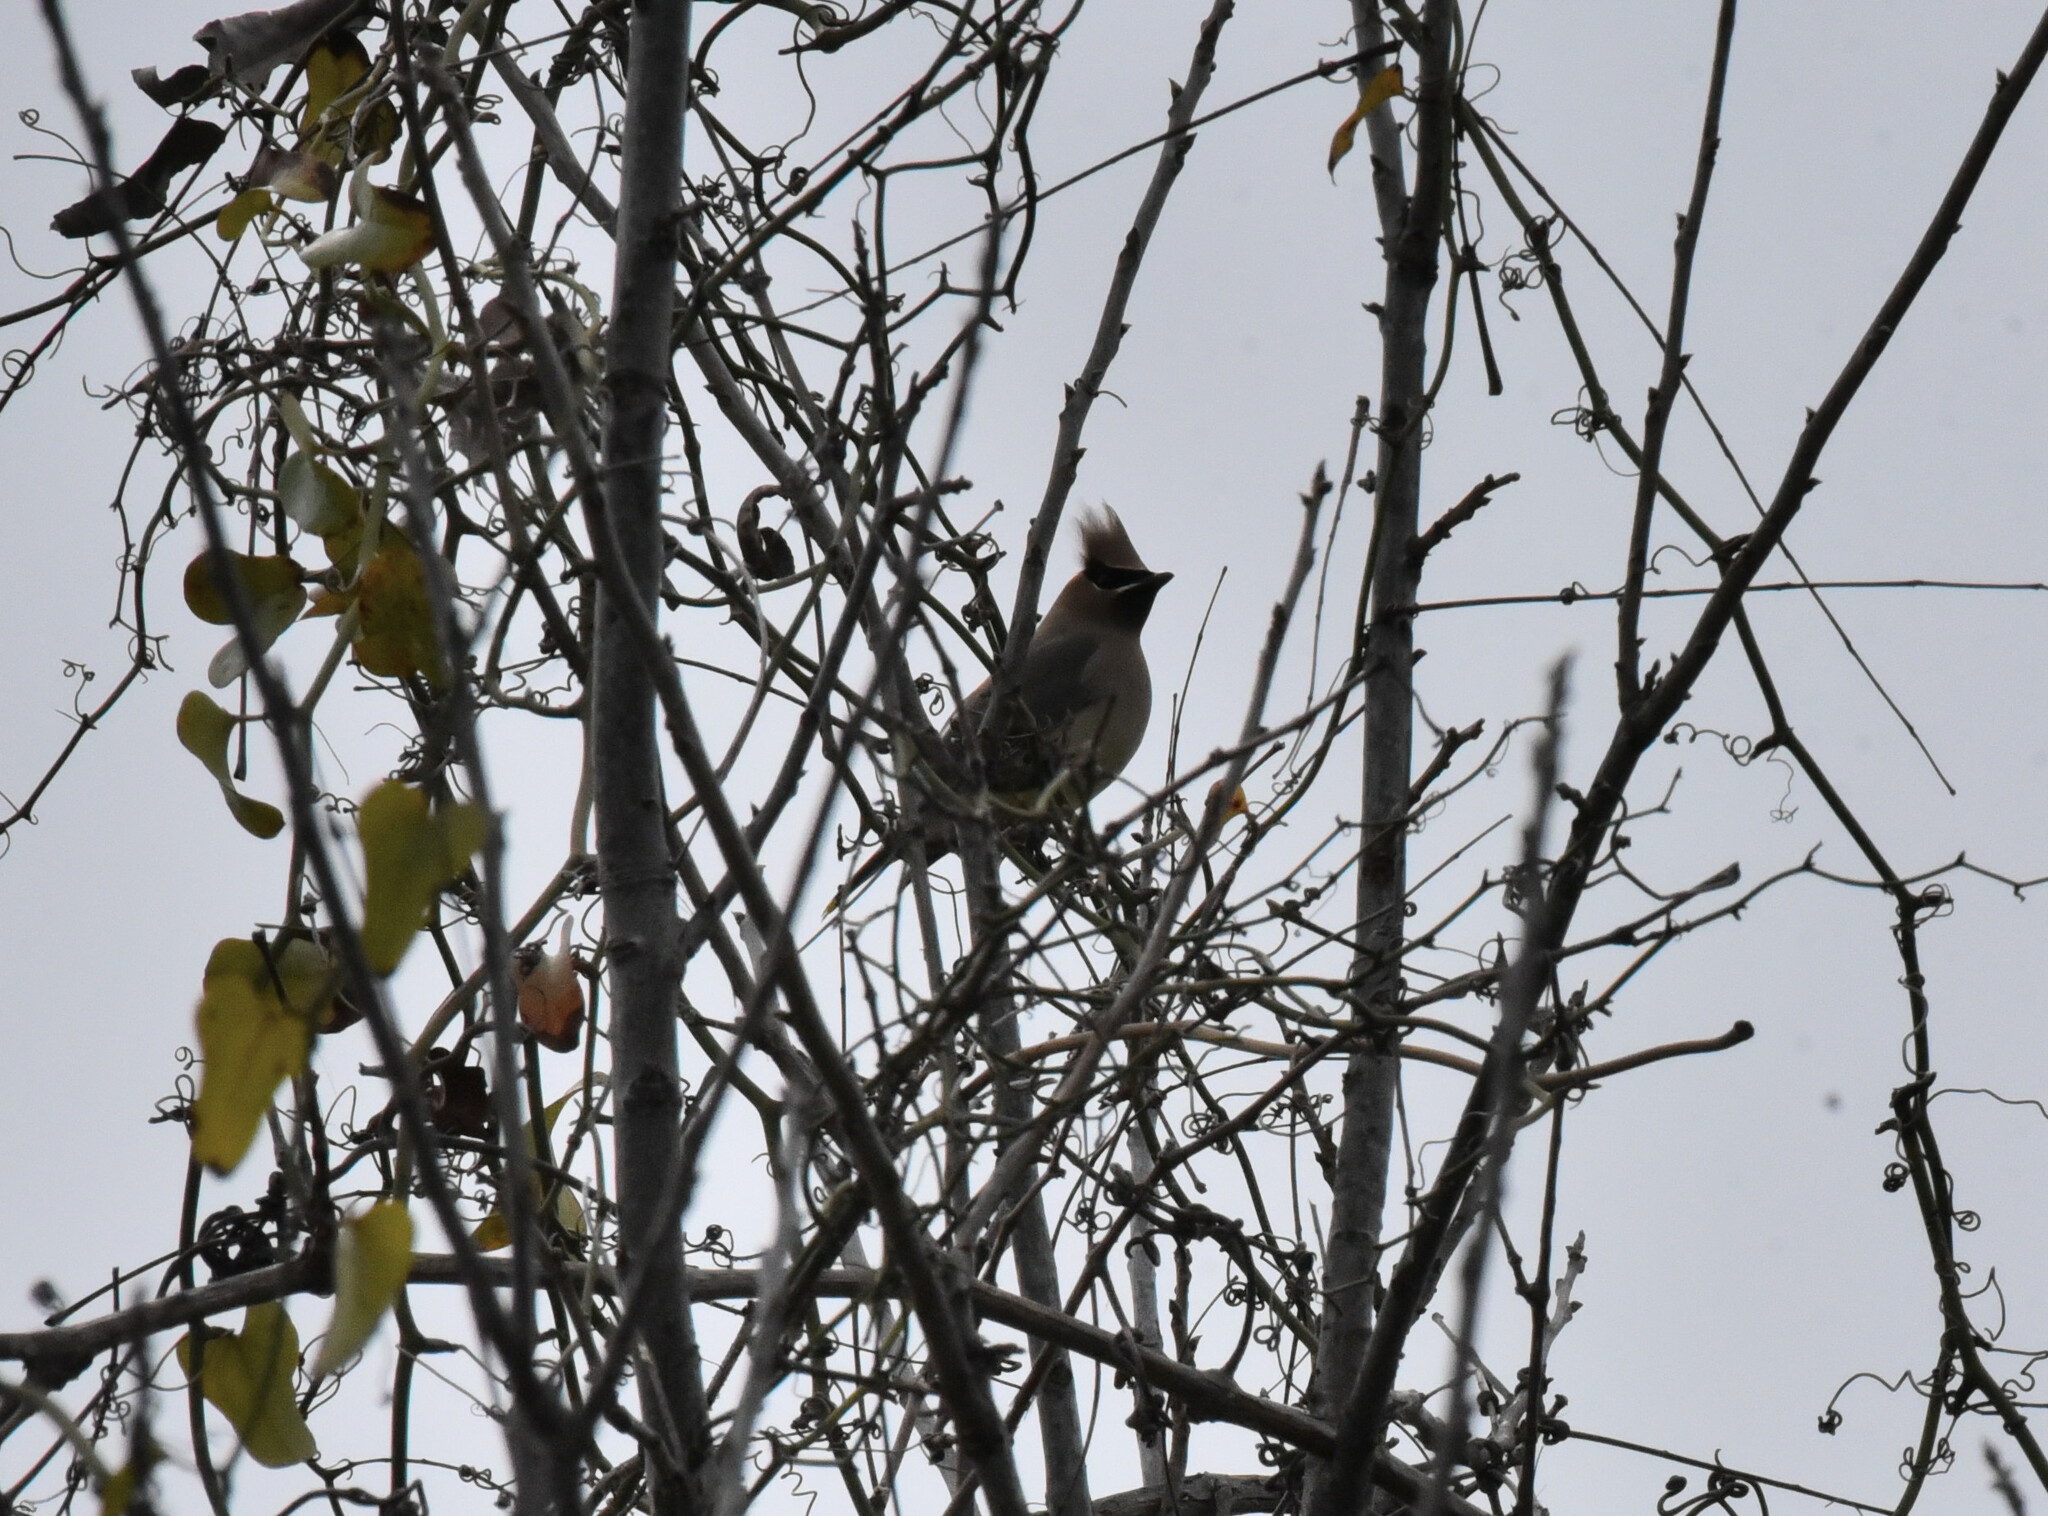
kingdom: Animalia
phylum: Chordata
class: Aves
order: Passeriformes
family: Bombycillidae
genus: Bombycilla
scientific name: Bombycilla cedrorum
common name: Cedar waxwing
